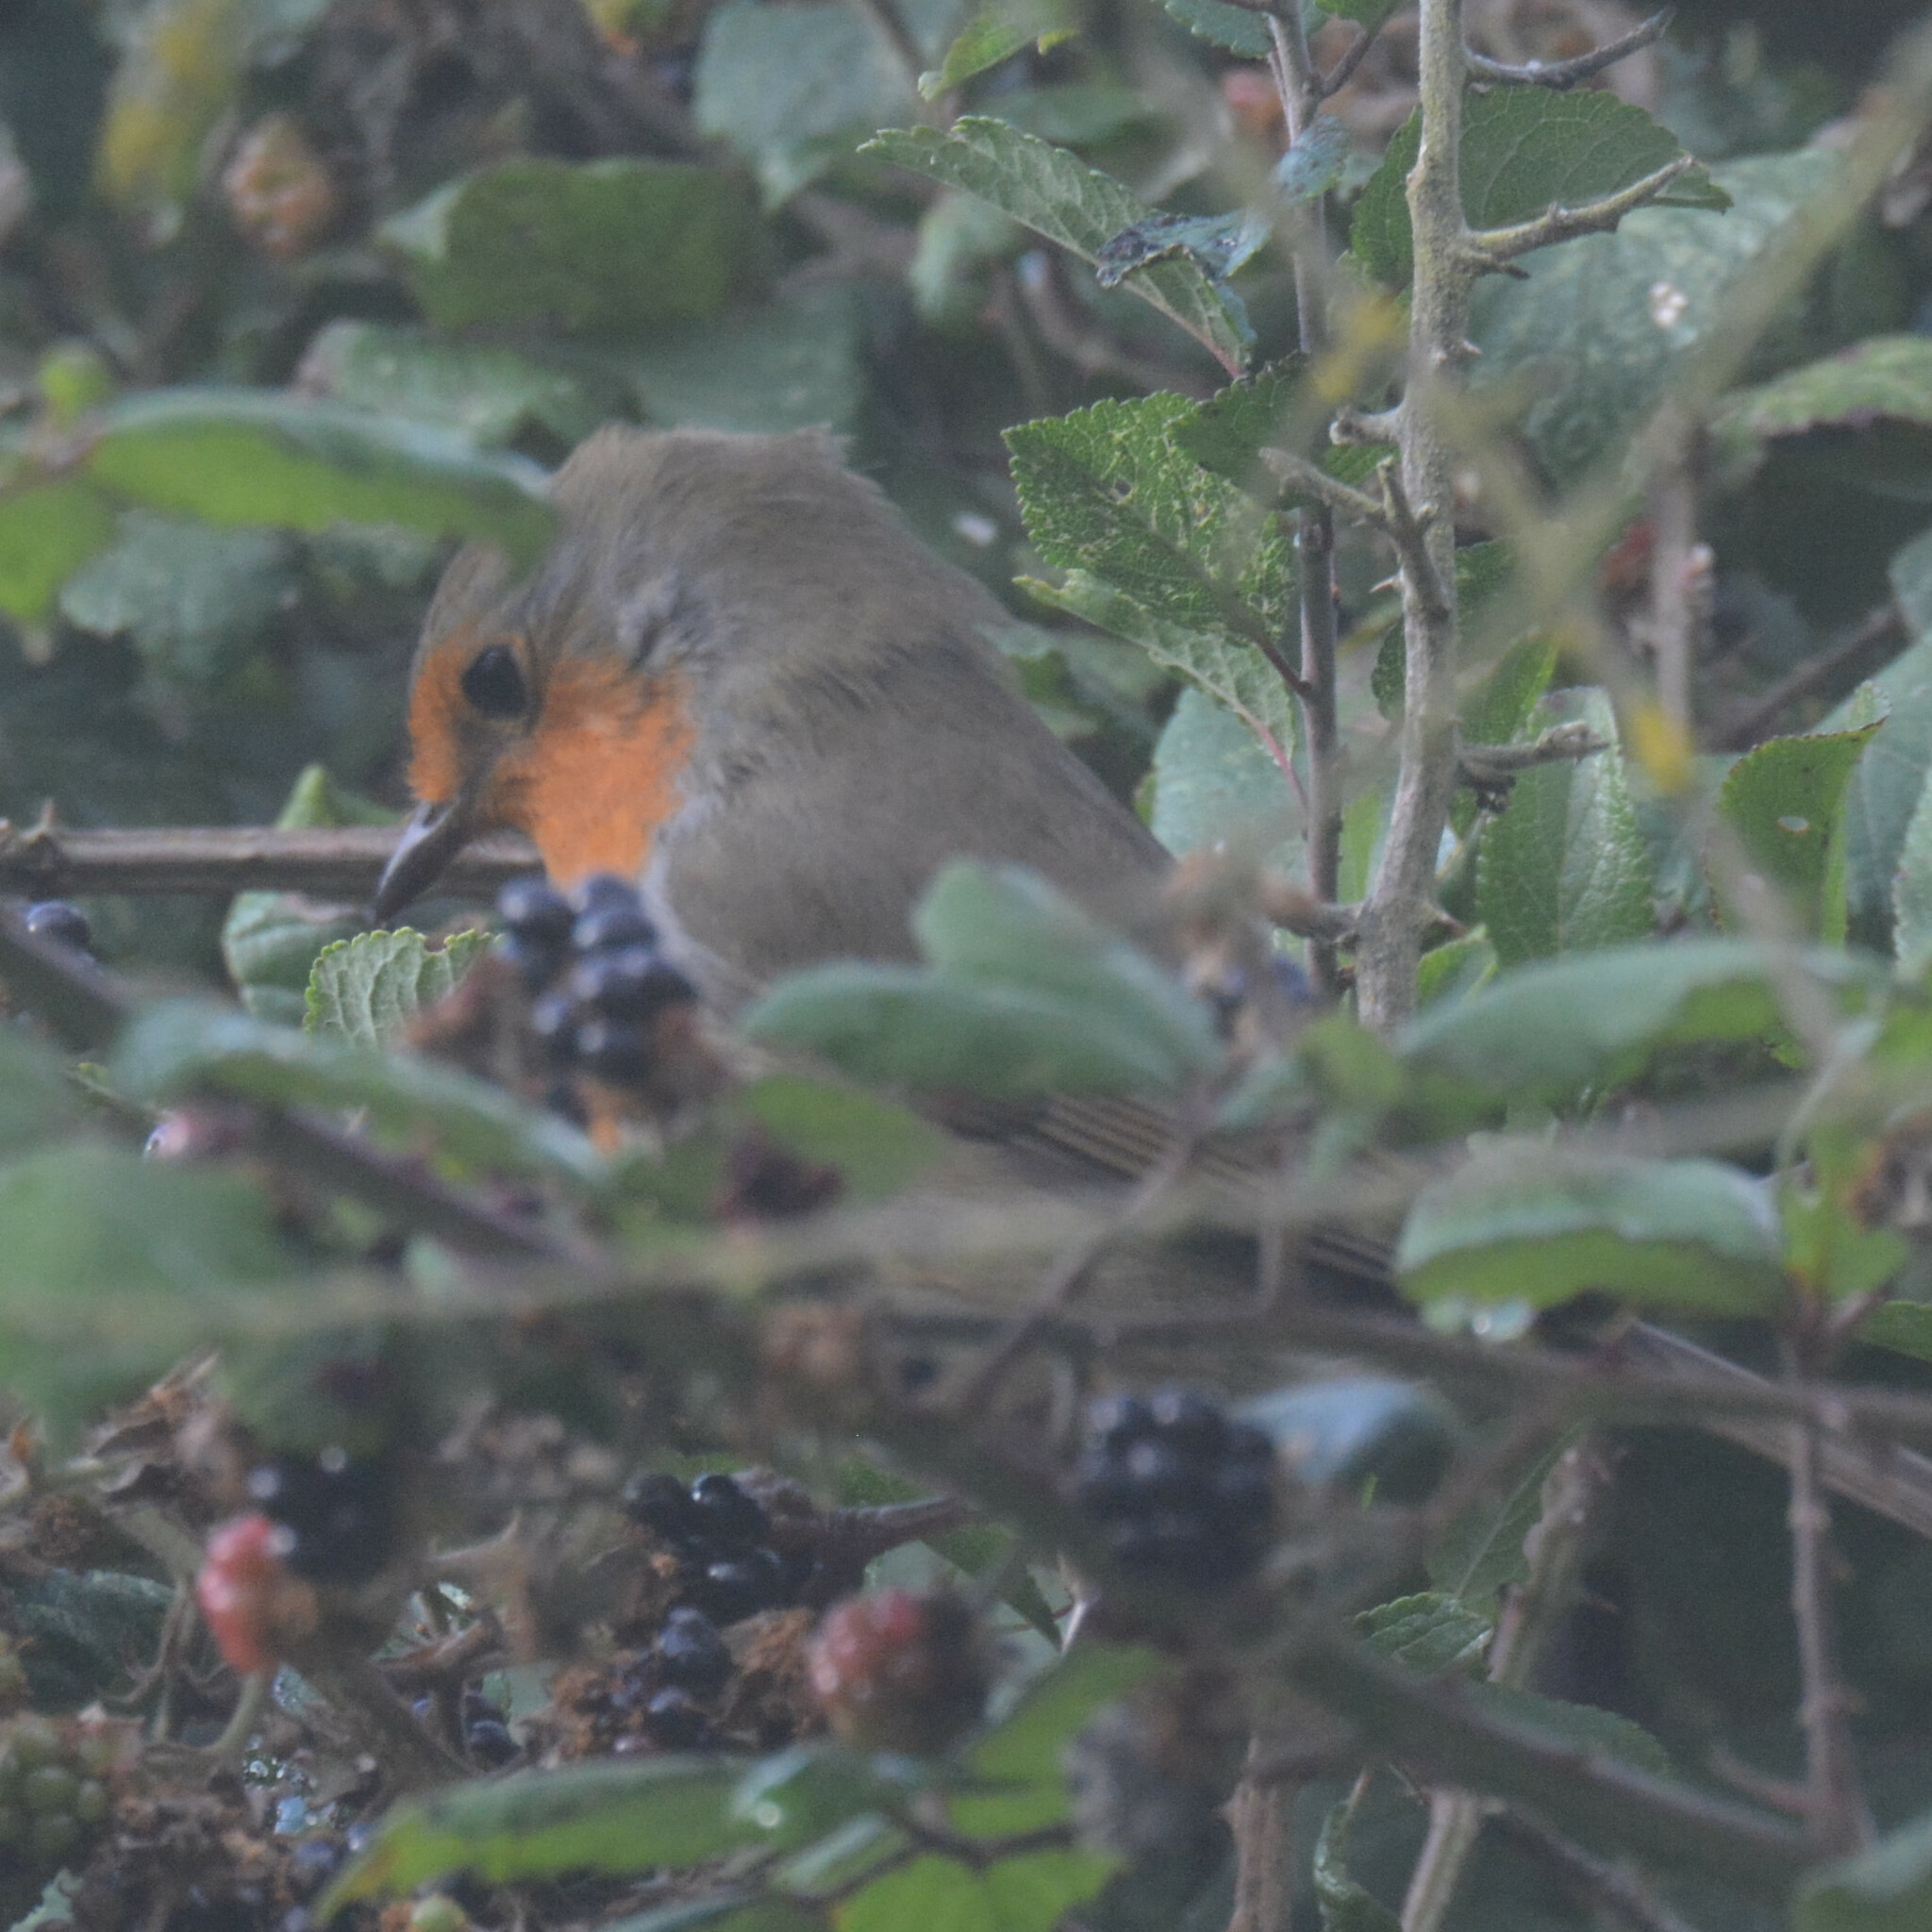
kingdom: Animalia
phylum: Chordata
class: Aves
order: Passeriformes
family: Muscicapidae
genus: Erithacus
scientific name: Erithacus rubecula
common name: European robin
